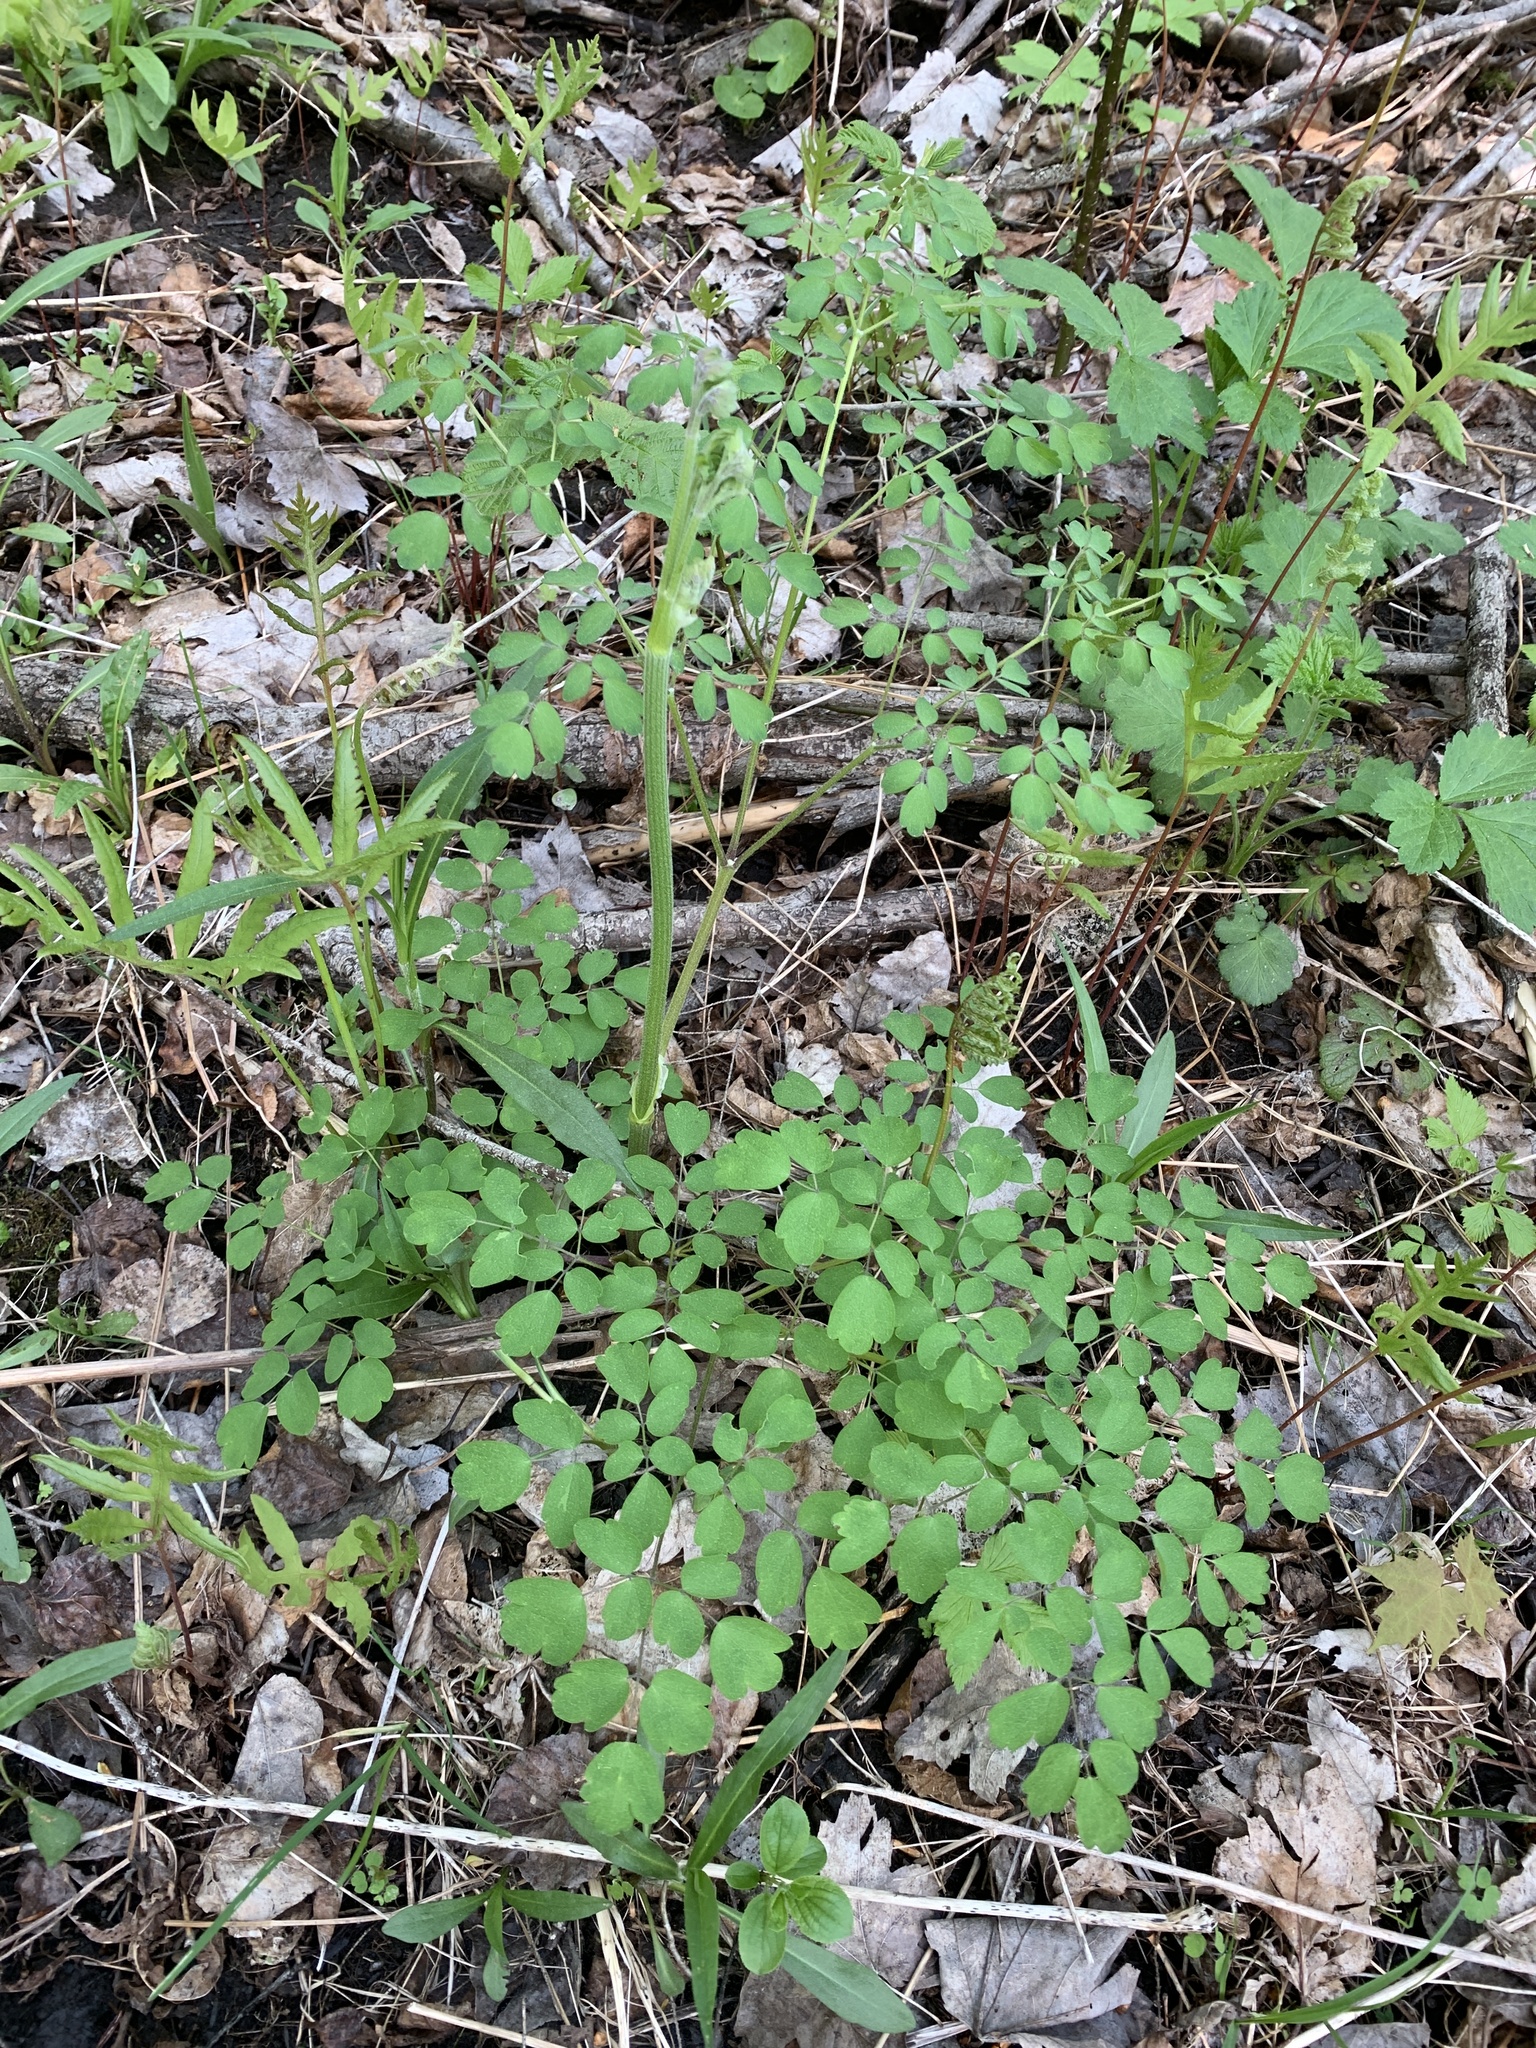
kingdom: Plantae
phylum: Tracheophyta
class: Magnoliopsida
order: Ranunculales
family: Ranunculaceae
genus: Thalictrum
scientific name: Thalictrum pubescens
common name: King-of-the-meadow
